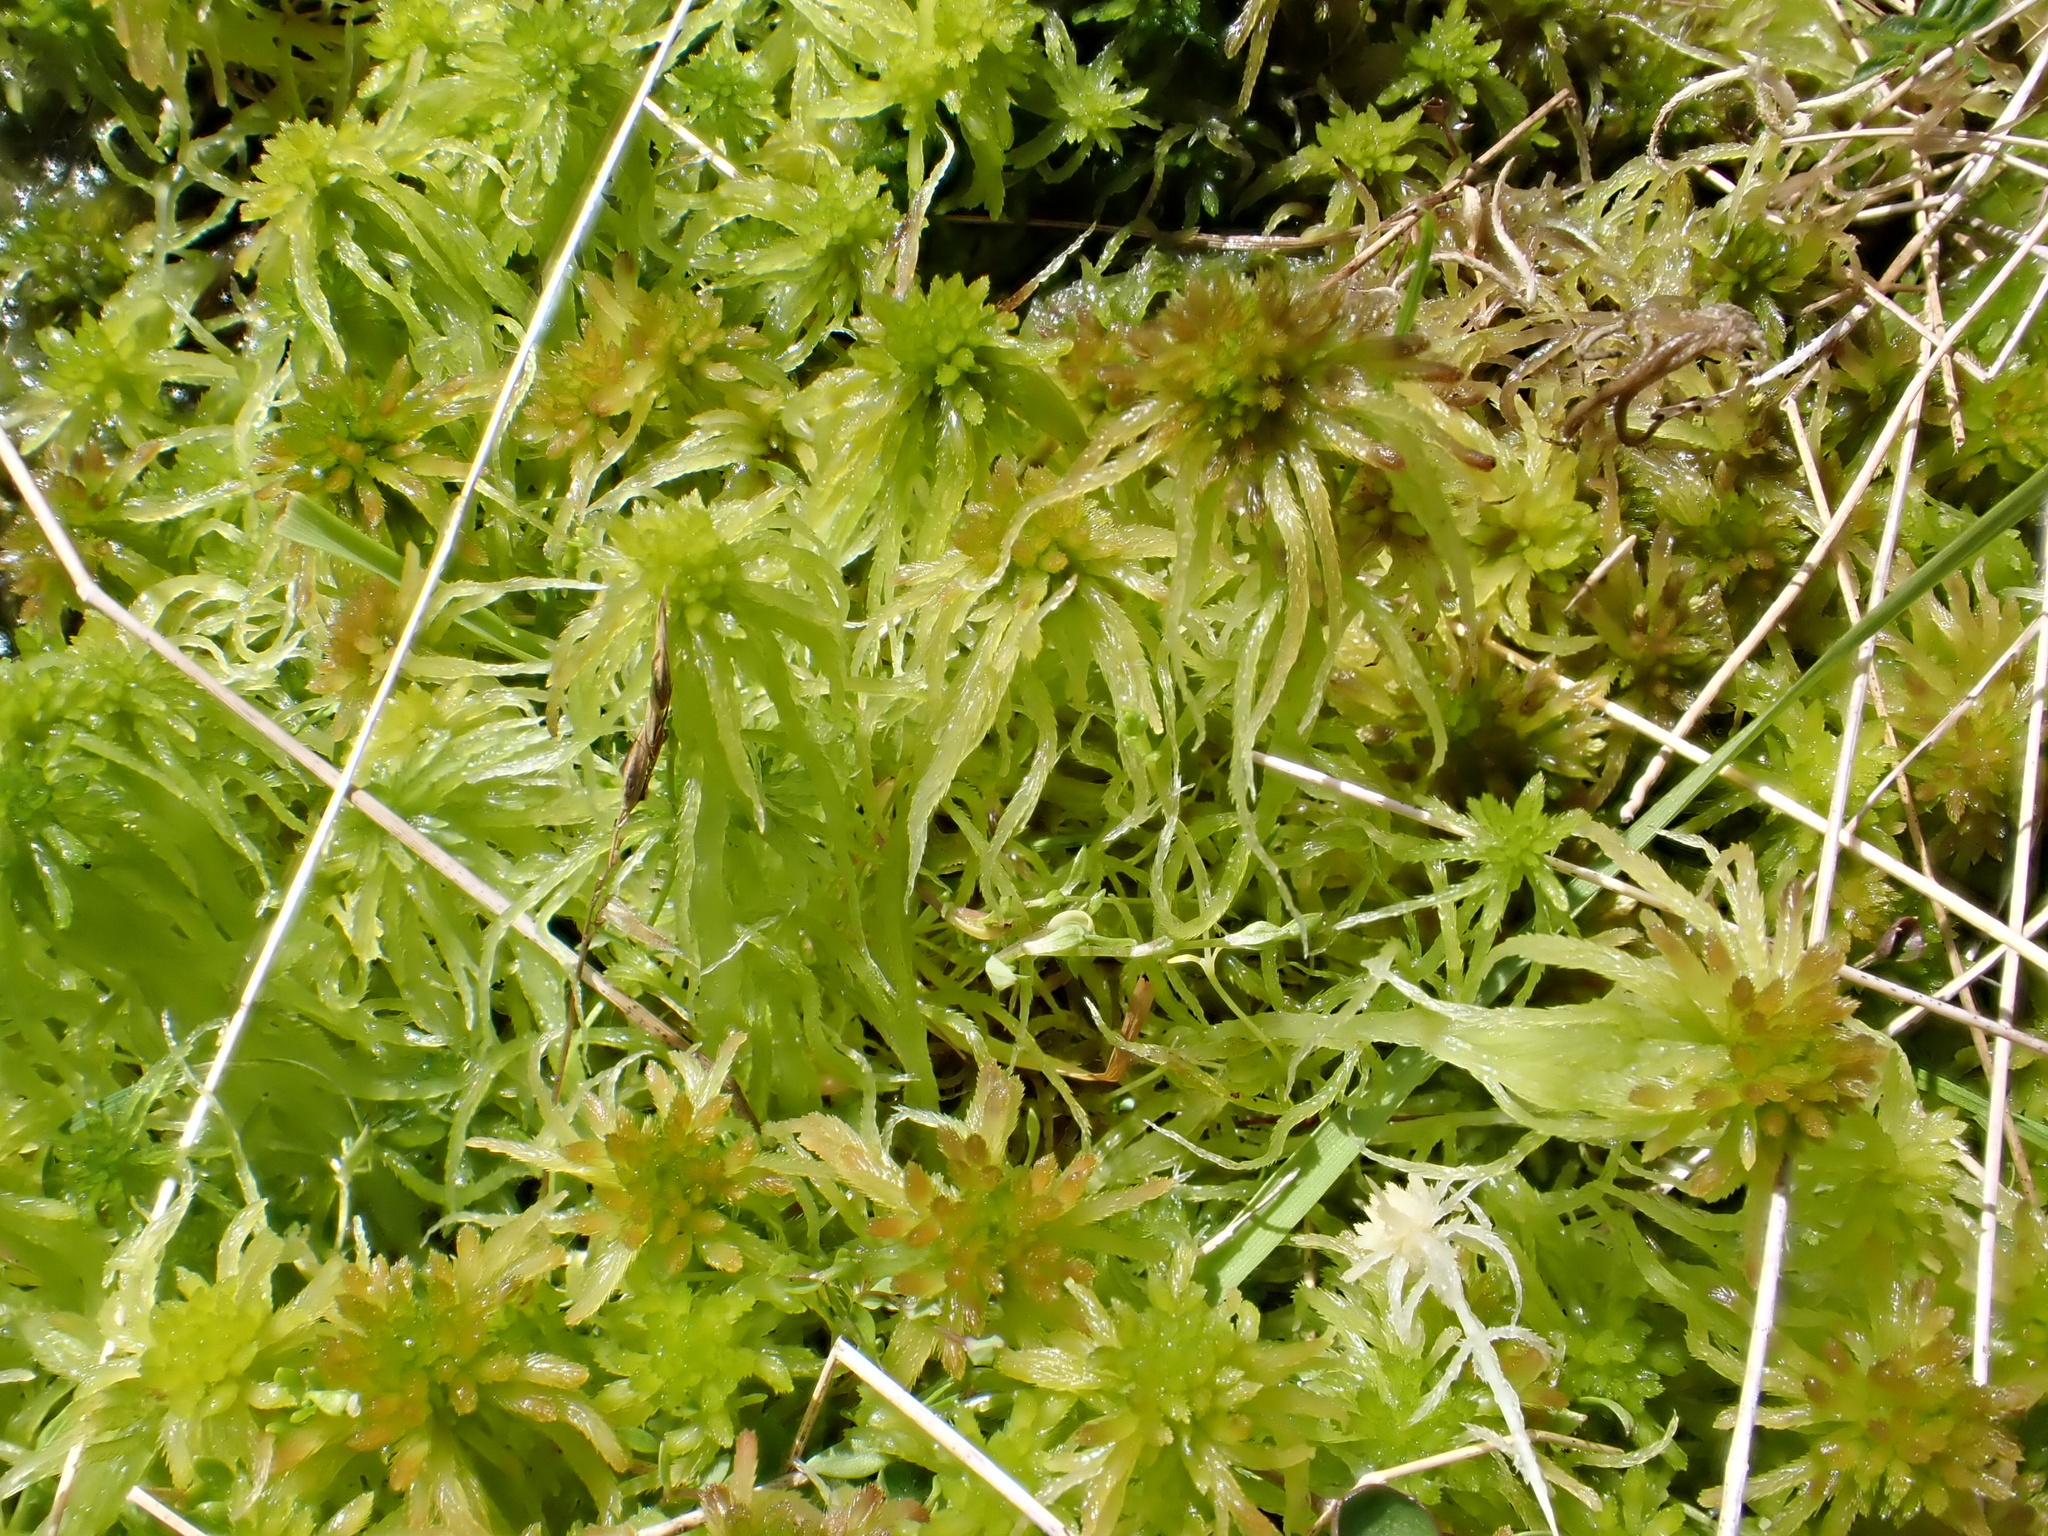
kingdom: Plantae
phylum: Bryophyta
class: Sphagnopsida
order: Sphagnales
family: Sphagnaceae
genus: Sphagnum
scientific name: Sphagnum fallax
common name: Flat-top peat moss
